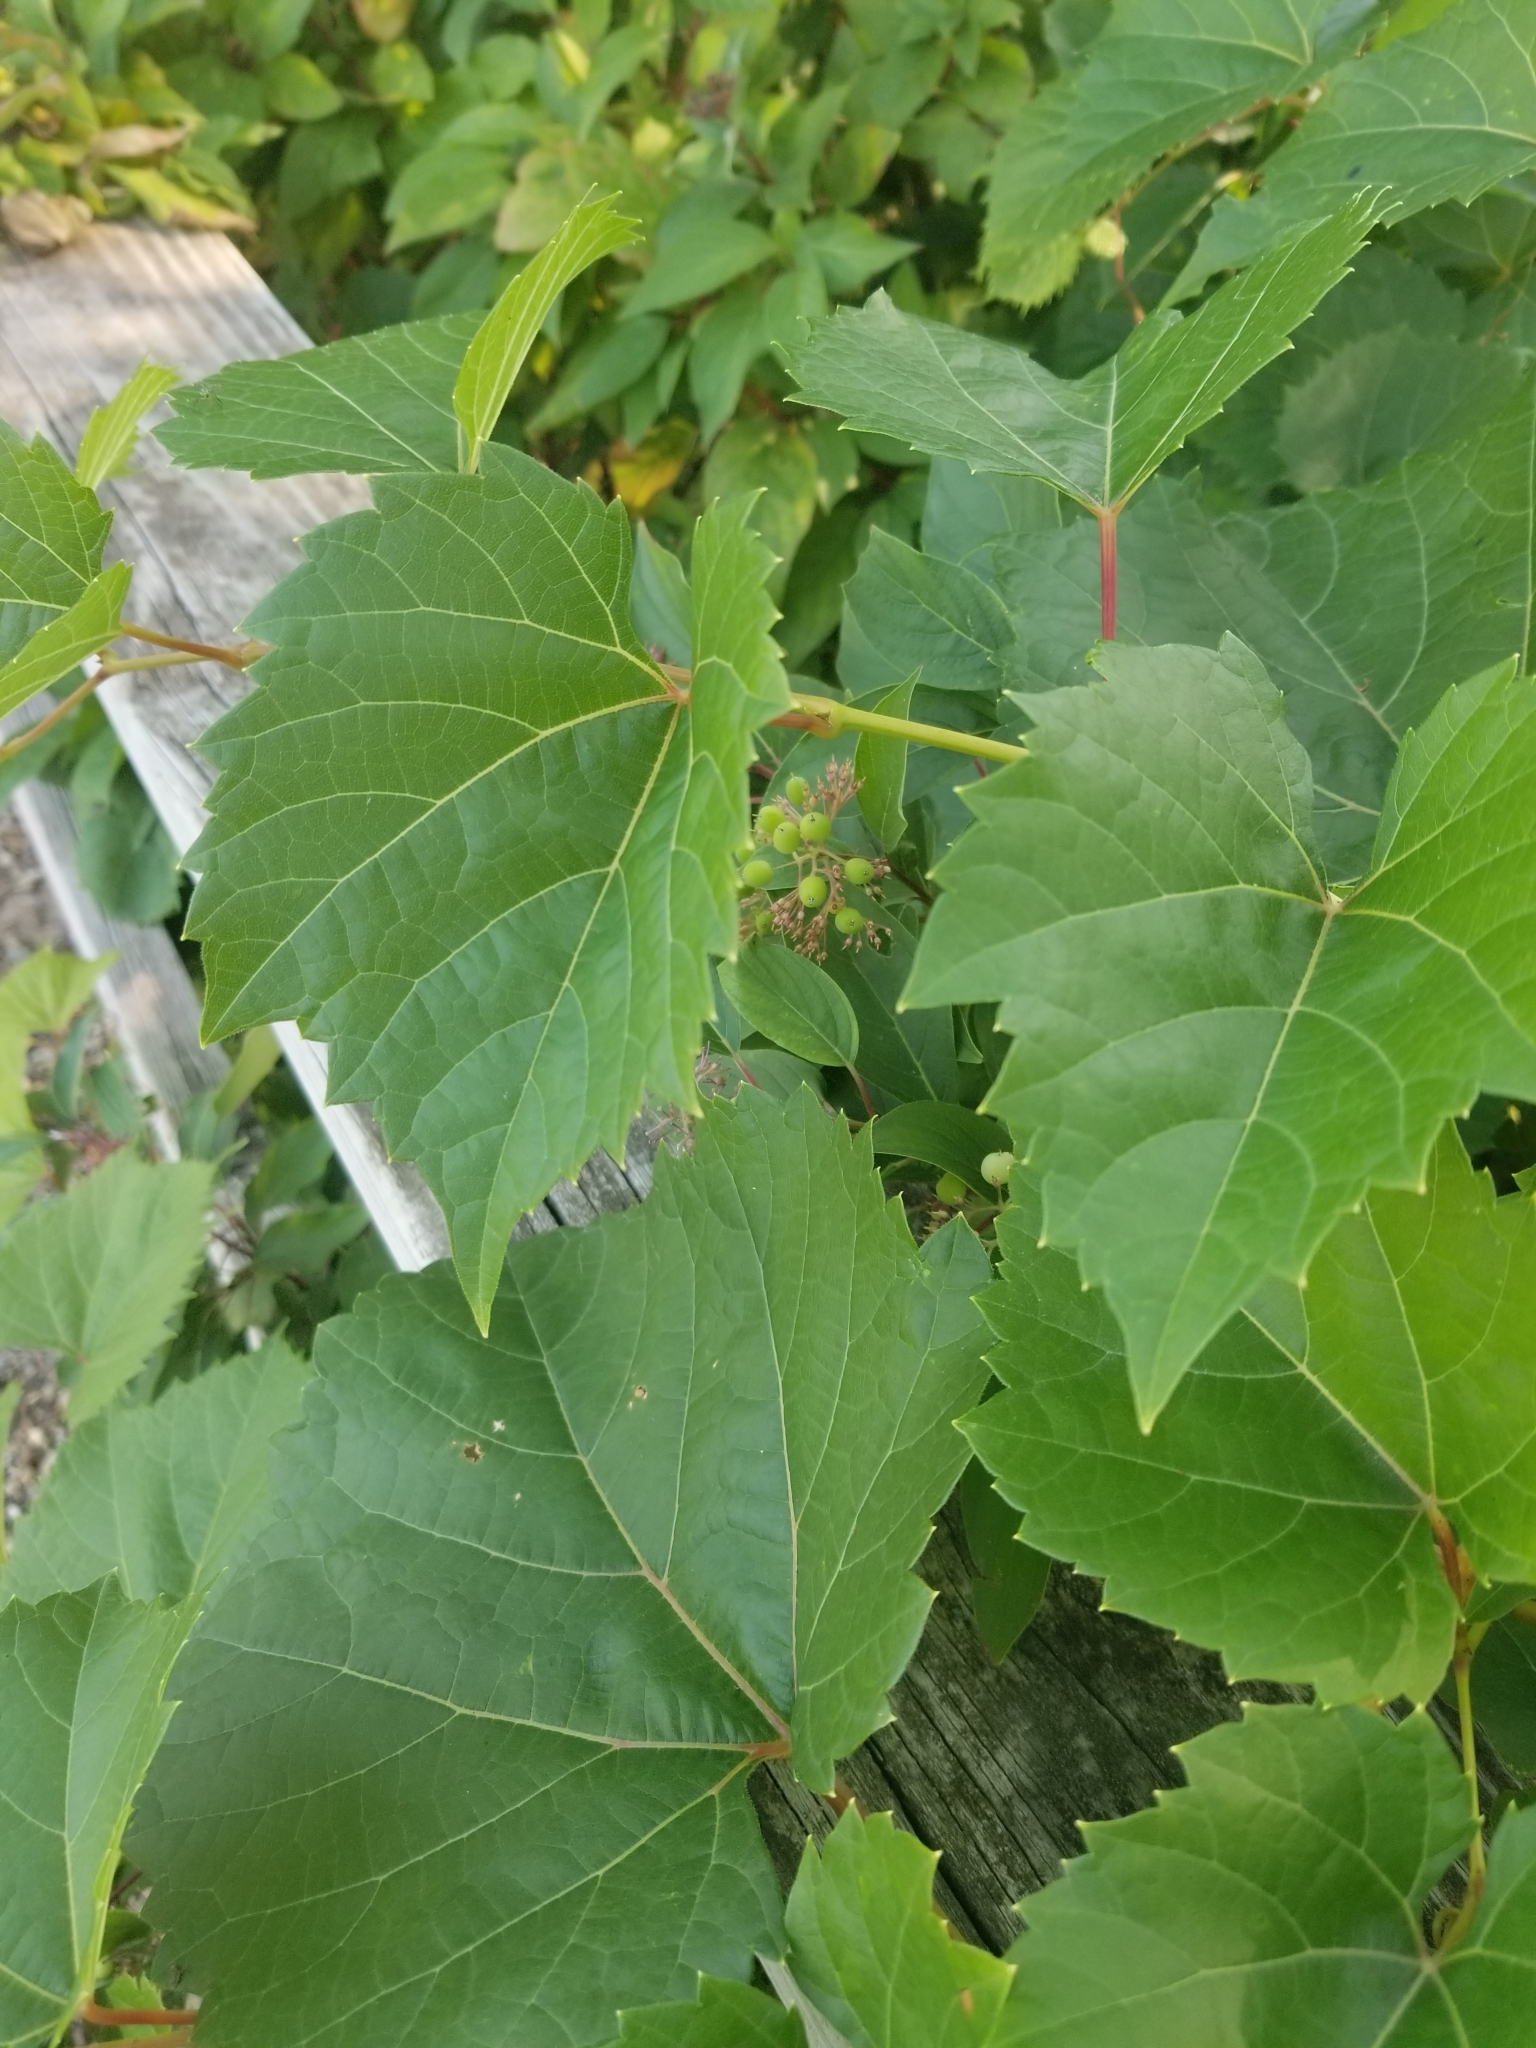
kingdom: Plantae
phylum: Tracheophyta
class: Magnoliopsida
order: Vitales
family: Vitaceae
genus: Vitis
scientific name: Vitis riparia
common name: Frost grape
